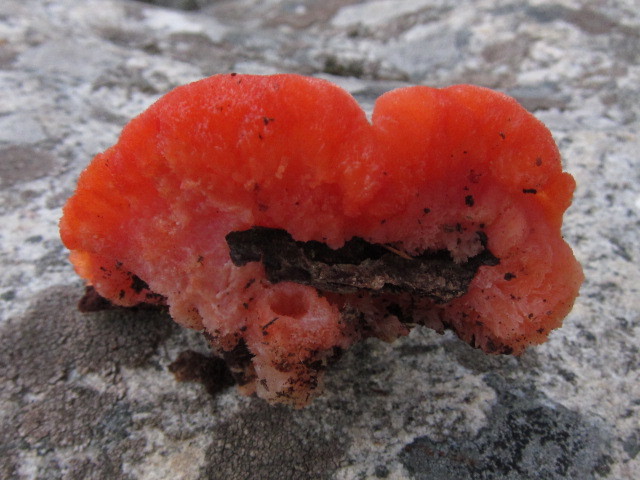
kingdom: Fungi
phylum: Basidiomycota
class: Agaricomycetes
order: Polyporales
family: Incrustoporiaceae
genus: Tyromyces
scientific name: Tyromyces pulcherrimus
